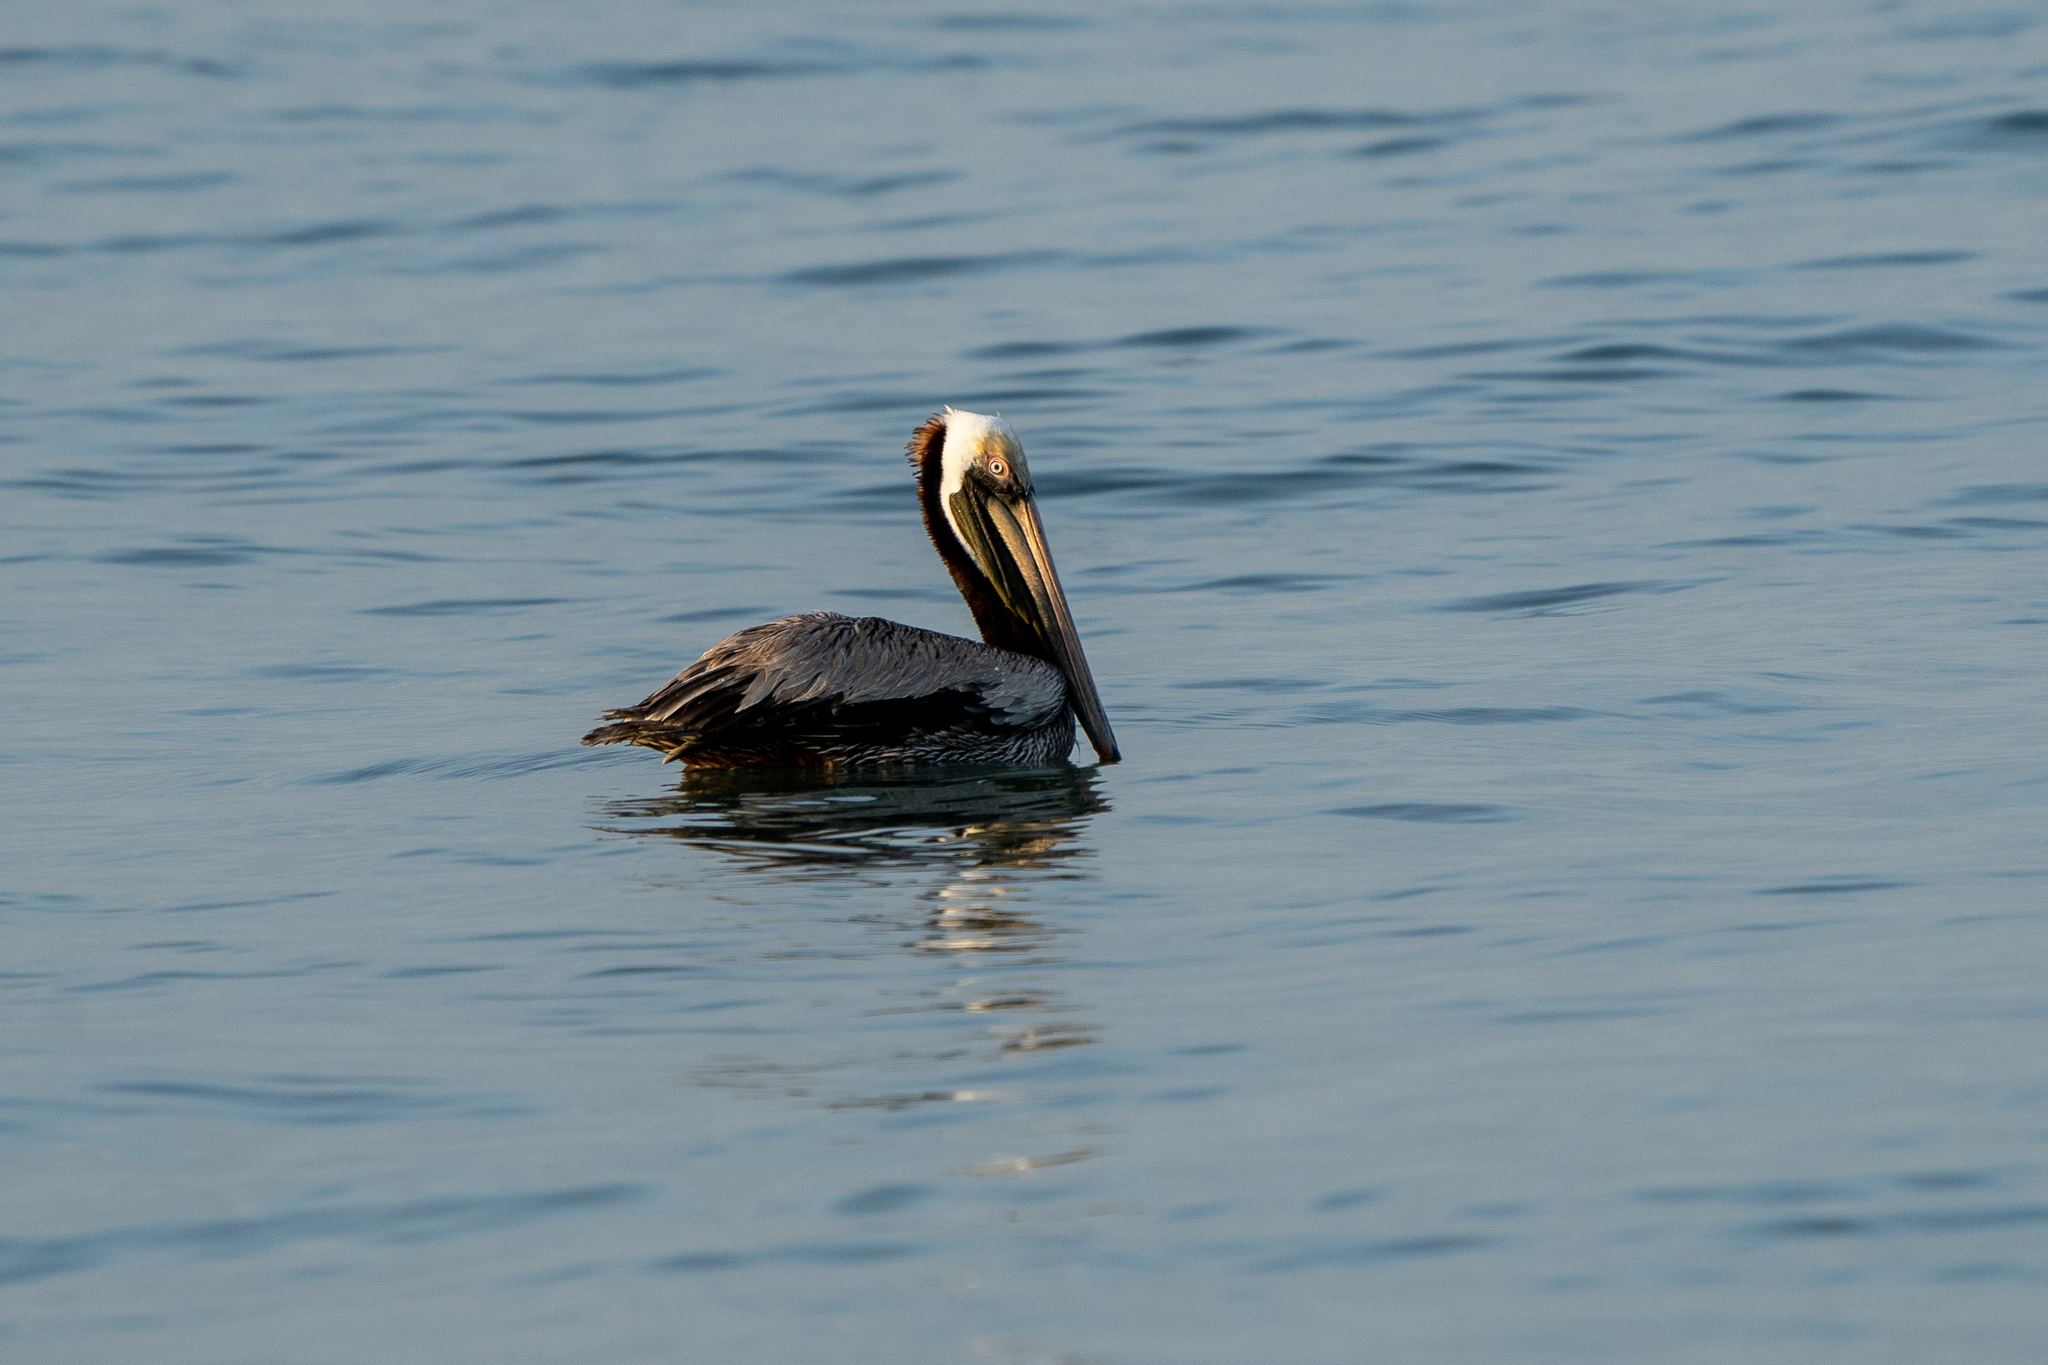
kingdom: Animalia
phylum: Chordata
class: Aves
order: Pelecaniformes
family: Pelecanidae
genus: Pelecanus
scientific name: Pelecanus occidentalis
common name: Brown pelican
